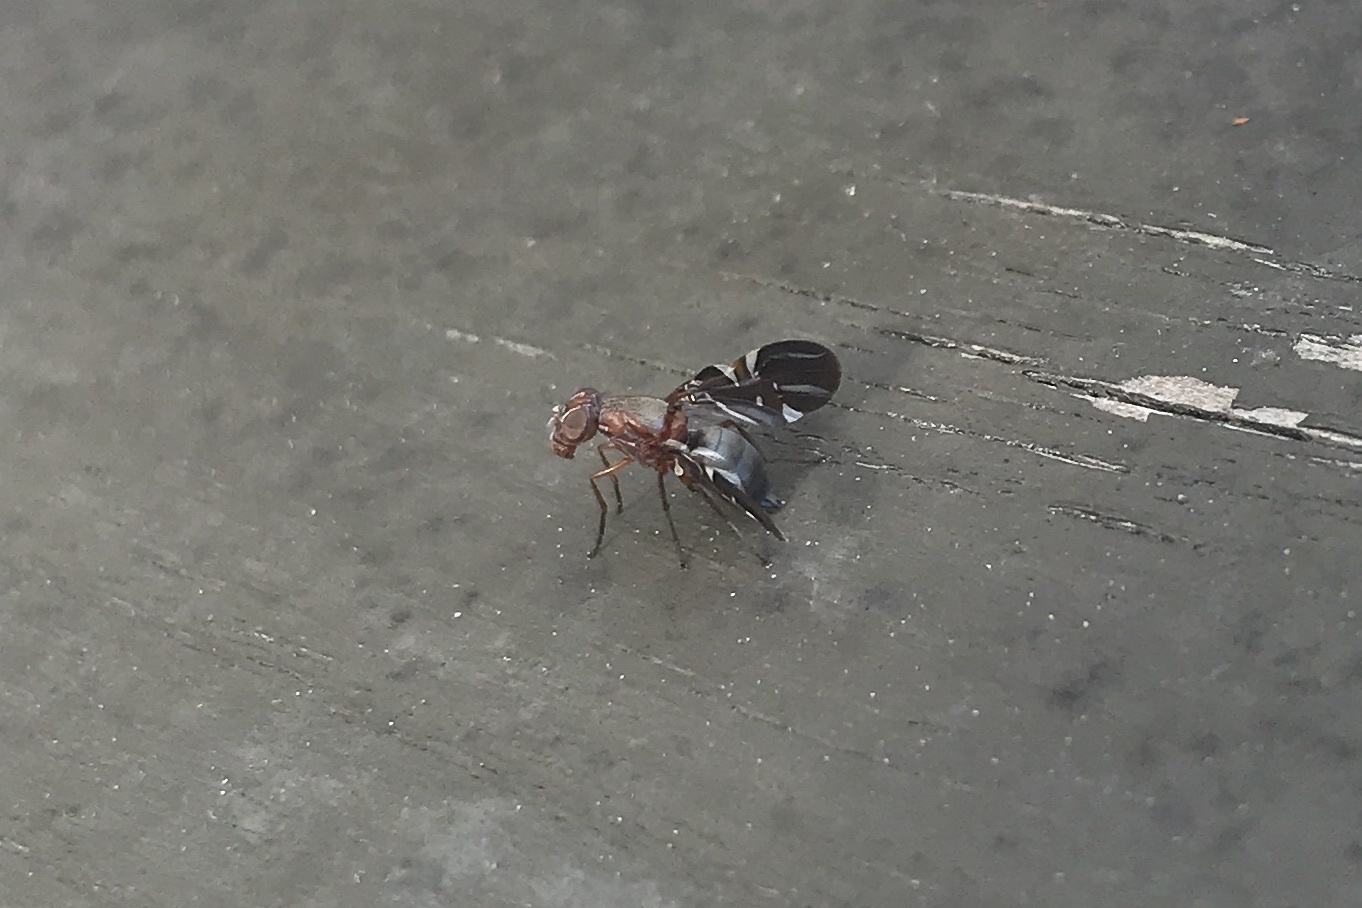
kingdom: Animalia
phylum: Arthropoda
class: Insecta
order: Diptera
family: Ulidiidae
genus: Delphinia
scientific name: Delphinia picta
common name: Common picture-winged fly
